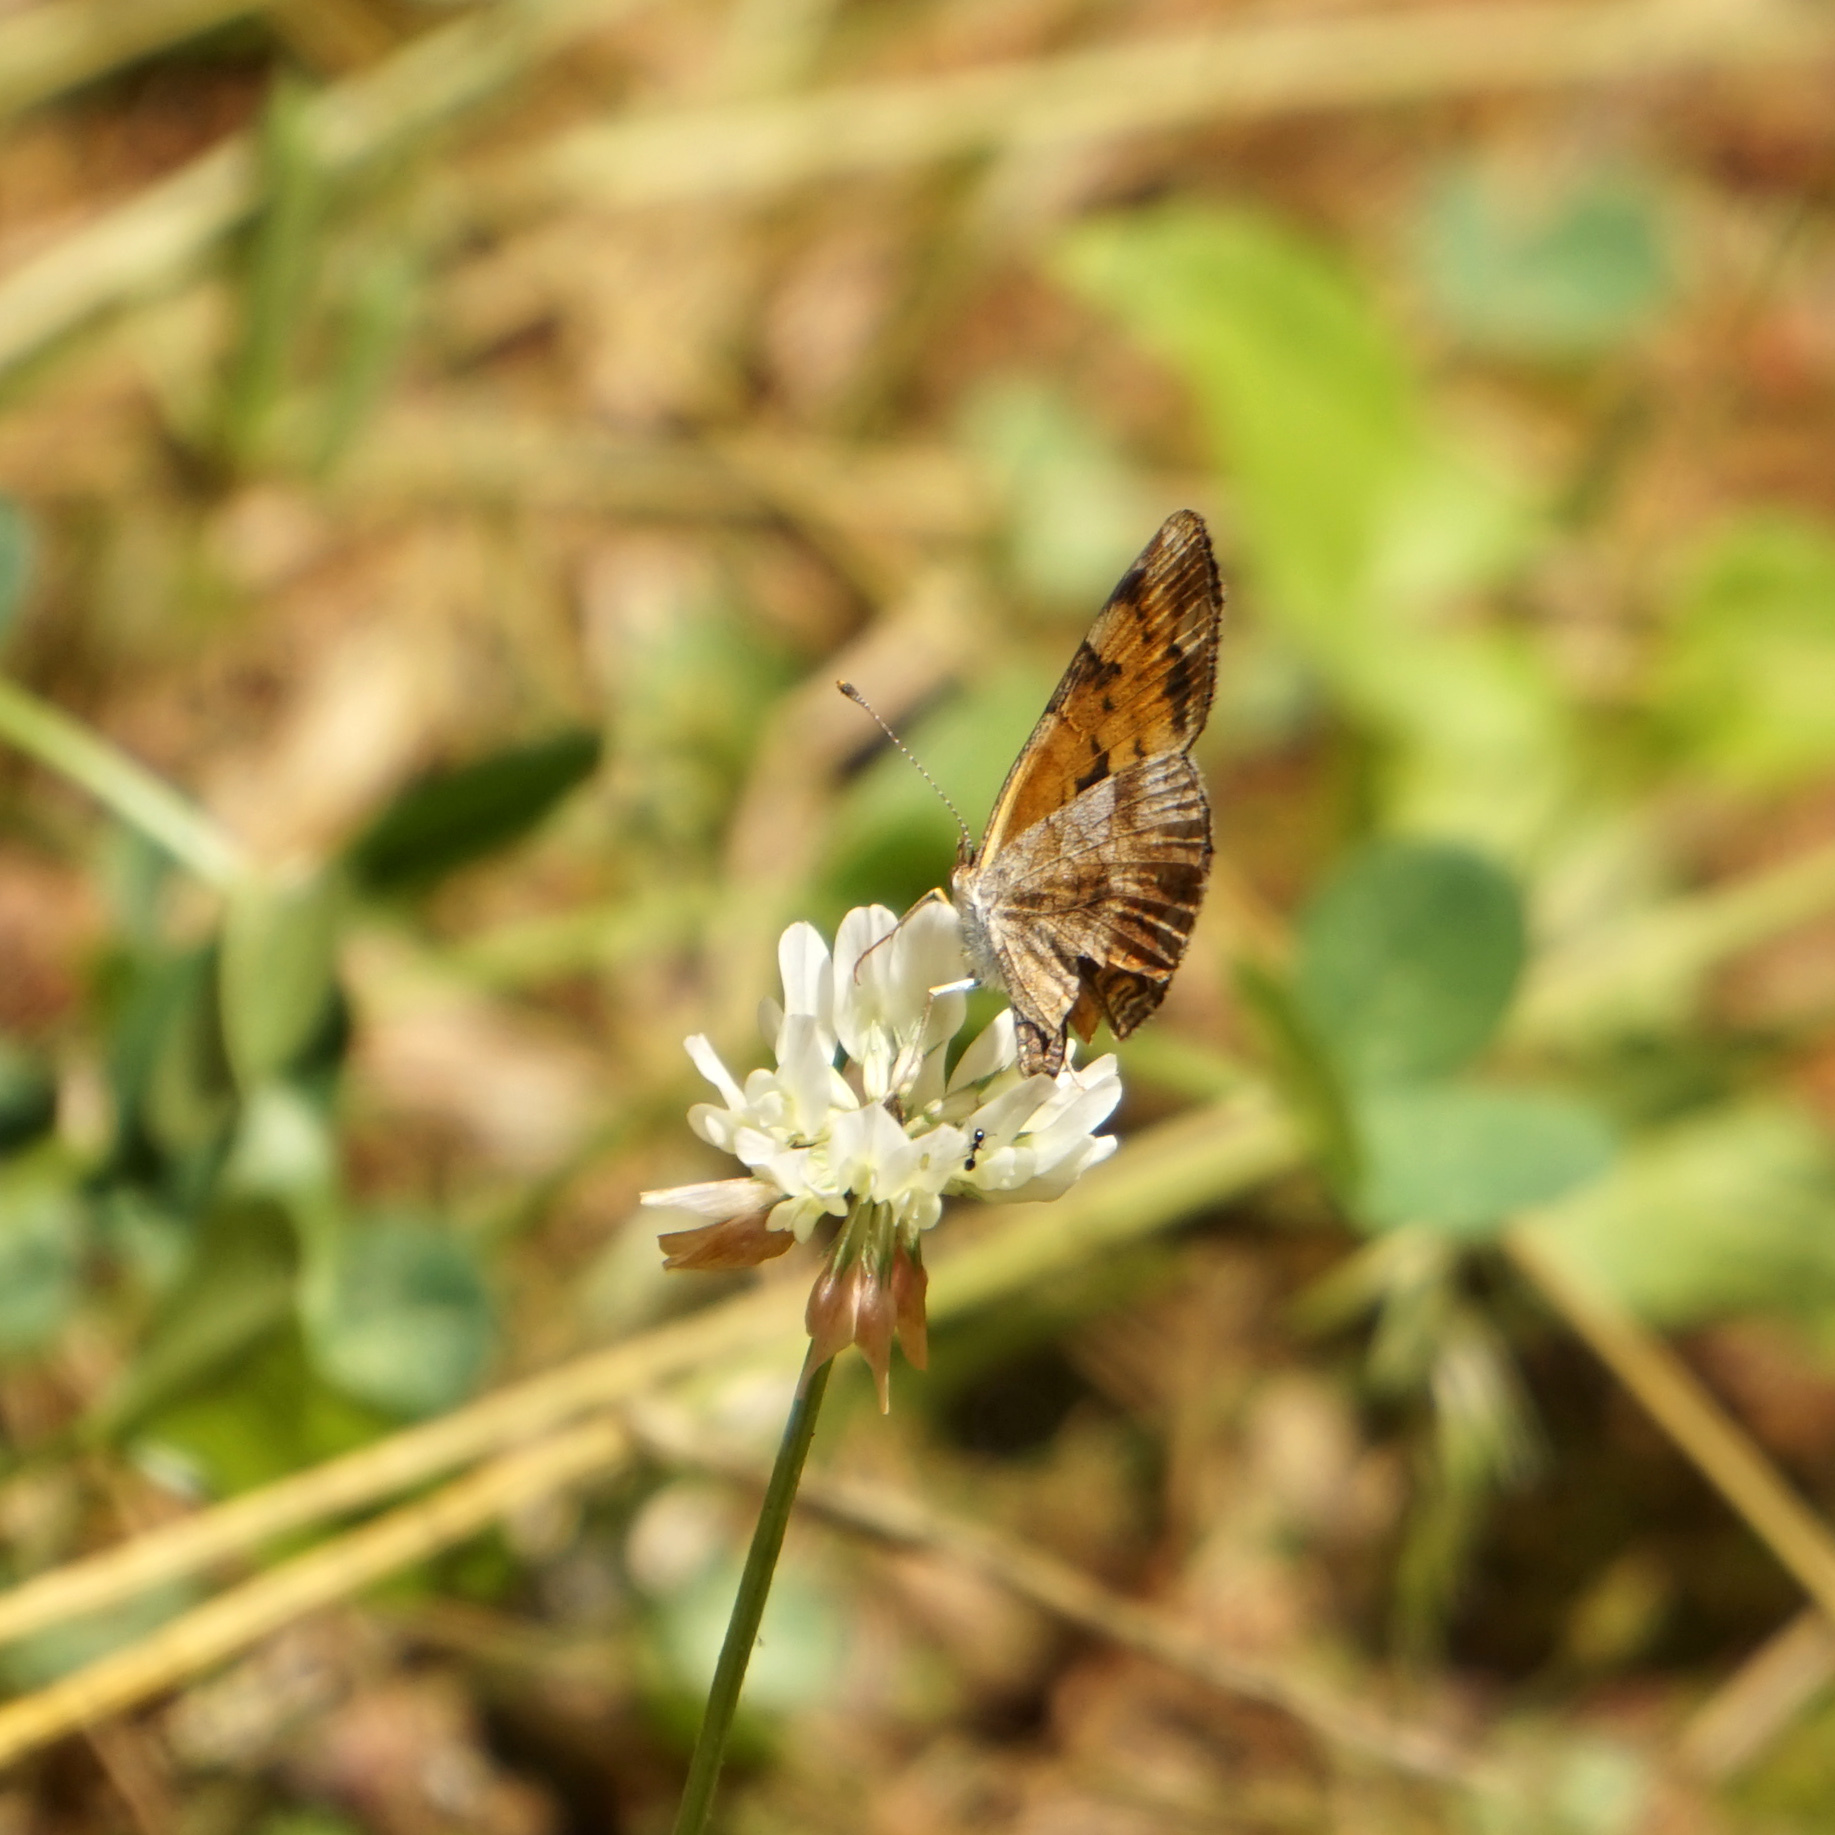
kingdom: Animalia
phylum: Arthropoda
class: Insecta
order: Lepidoptera
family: Nymphalidae
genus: Phyciodes
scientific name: Phyciodes tharos
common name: Pearl crescent
